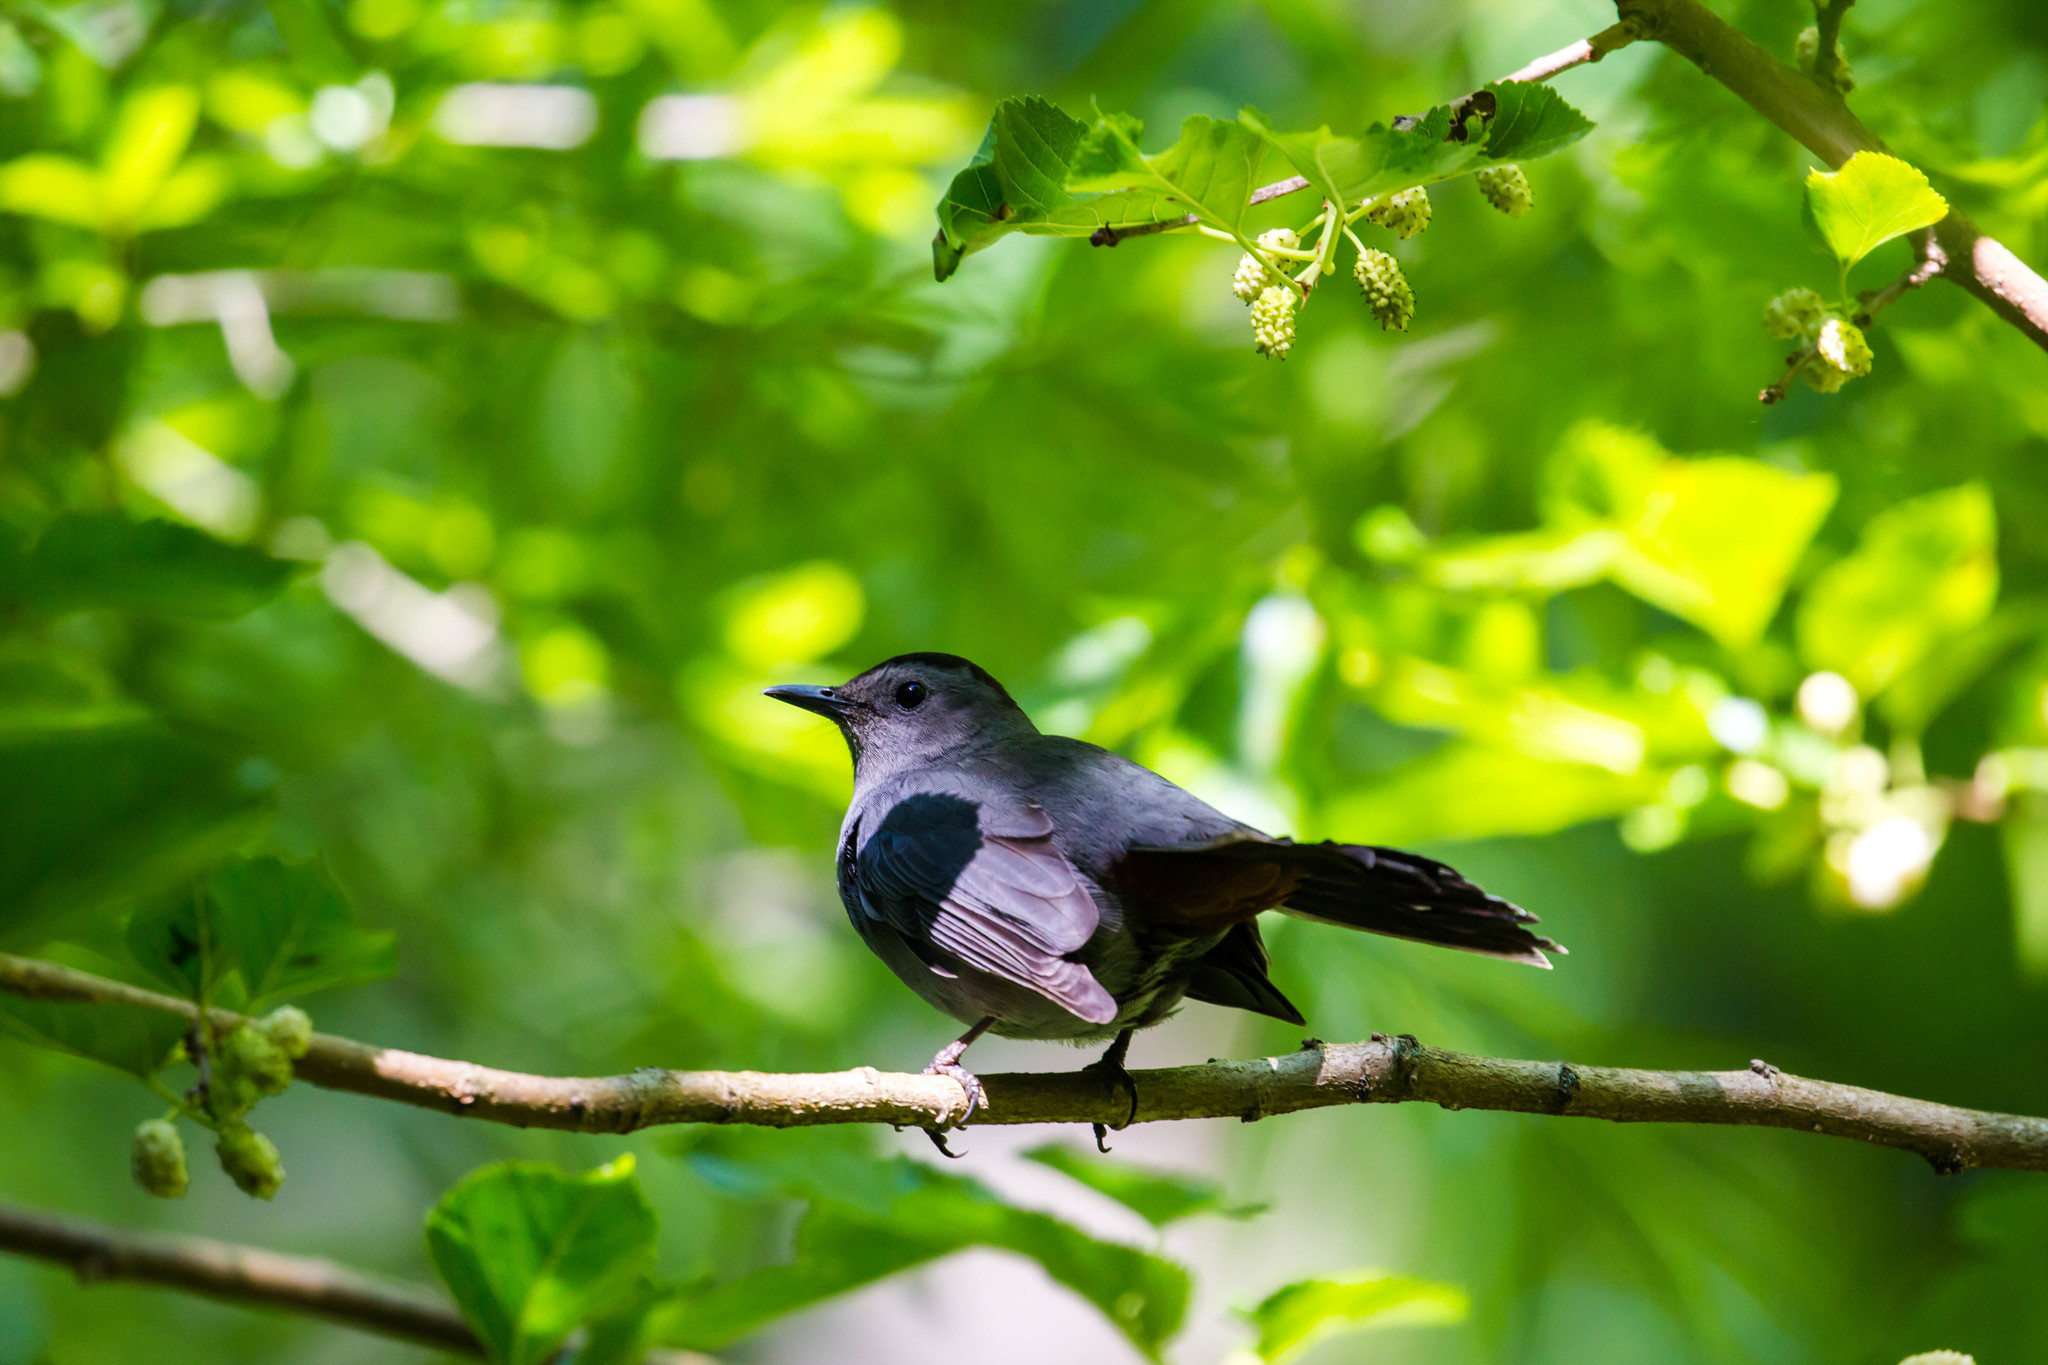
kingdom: Animalia
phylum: Chordata
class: Aves
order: Passeriformes
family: Mimidae
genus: Dumetella
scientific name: Dumetella carolinensis
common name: Gray catbird
